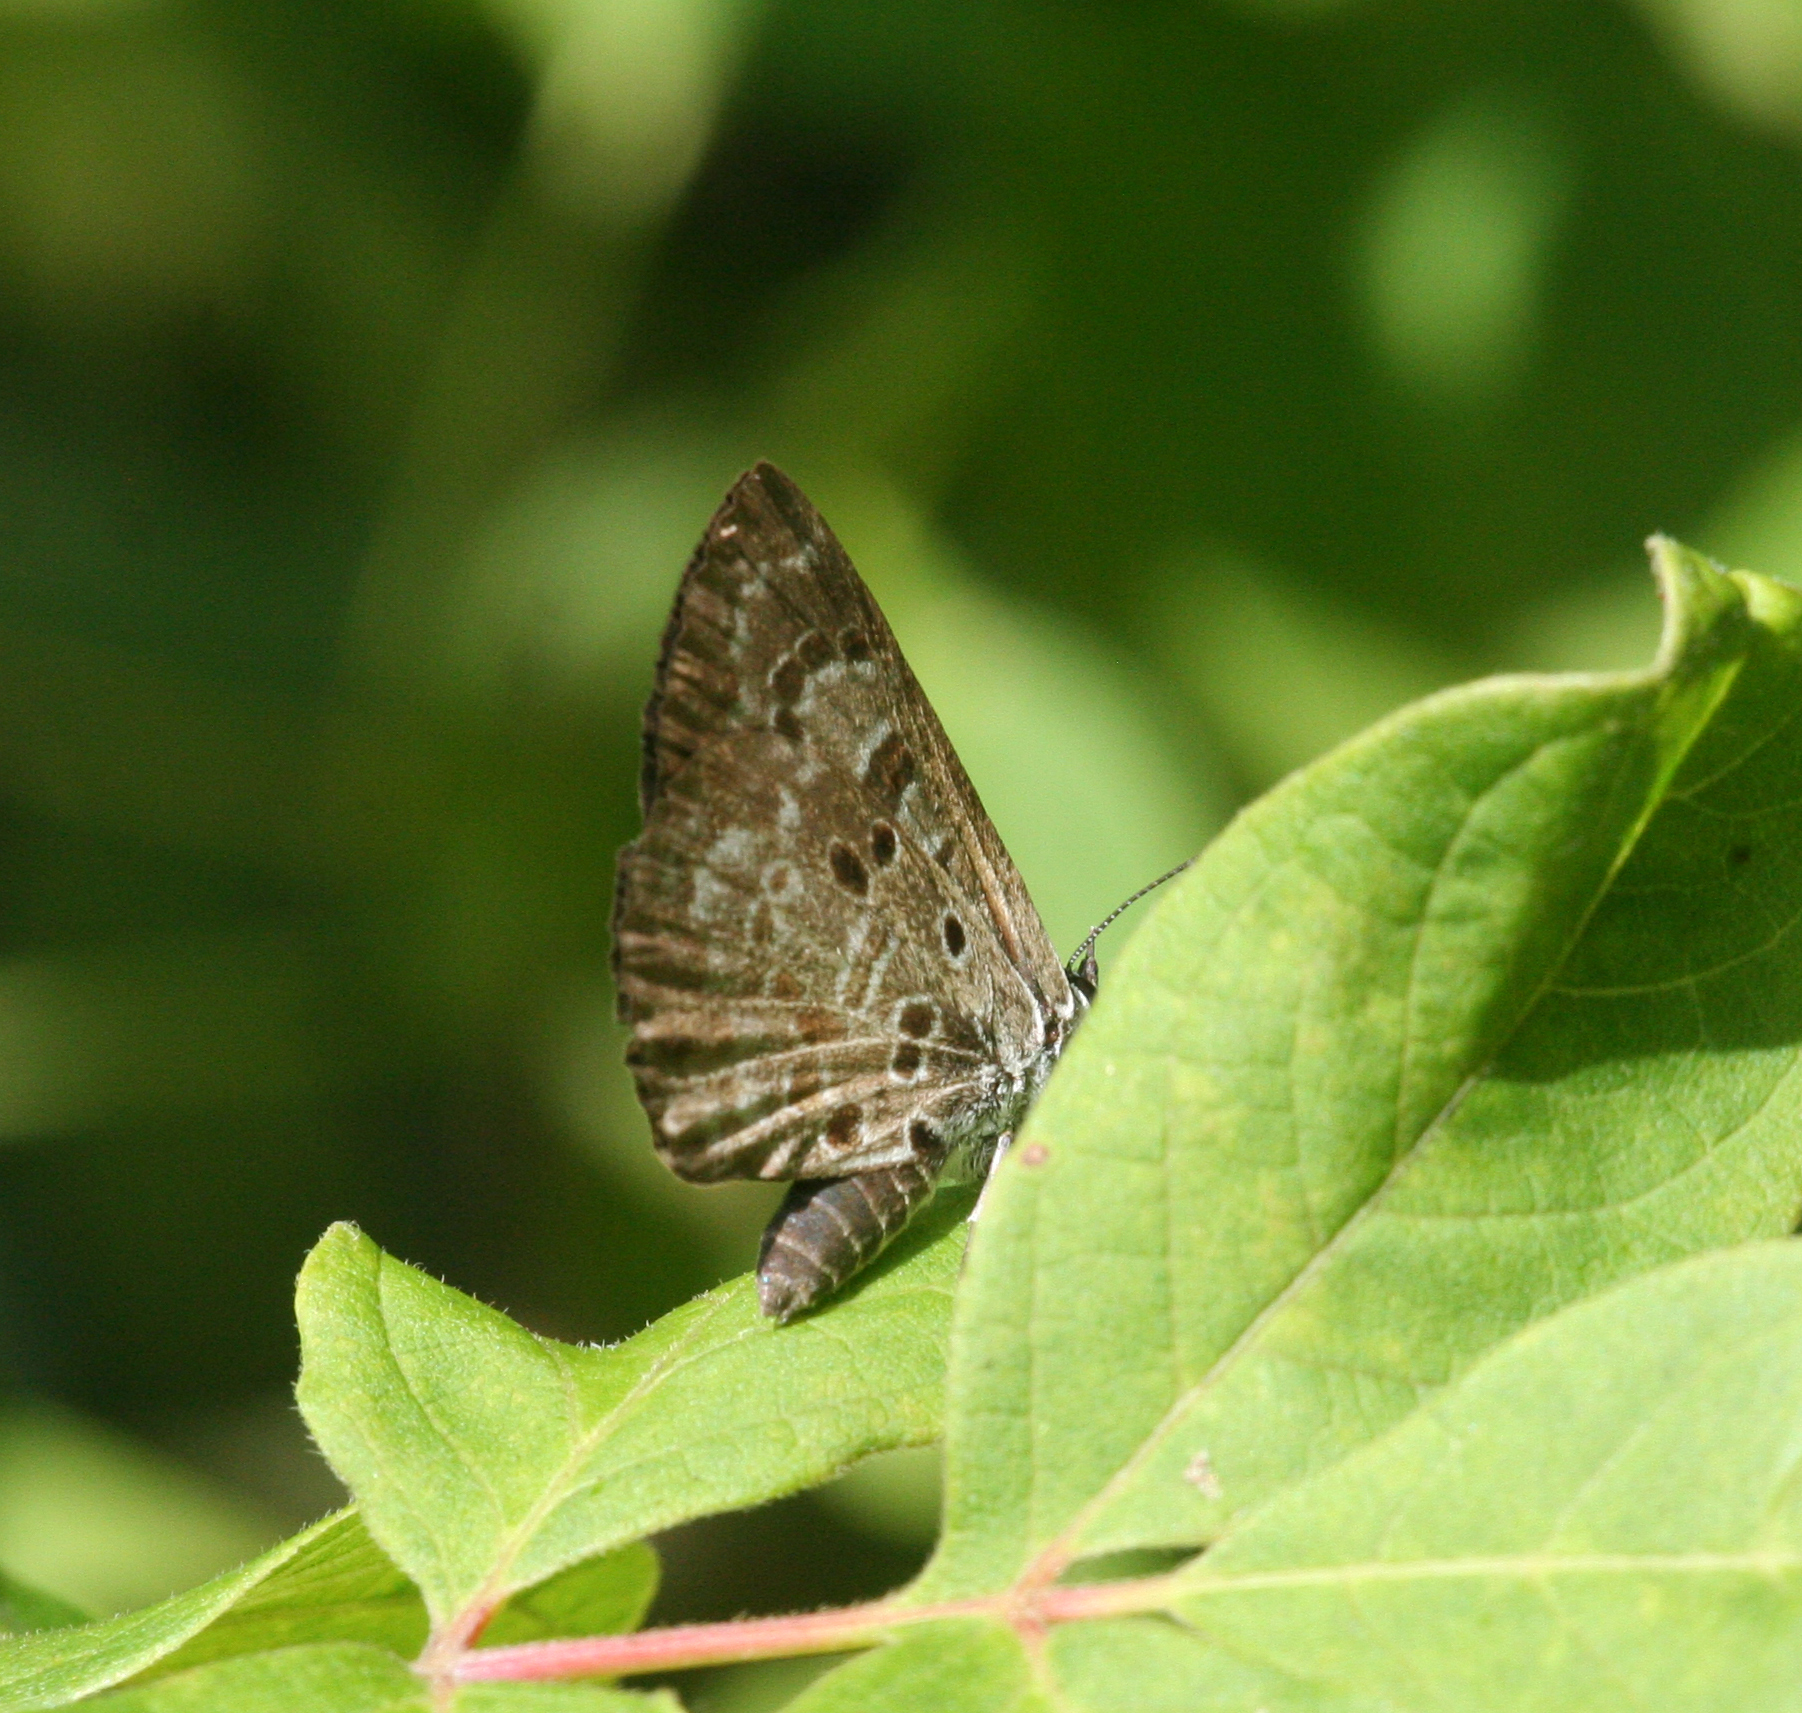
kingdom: Animalia
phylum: Arthropoda
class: Insecta
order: Lepidoptera
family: Lycaenidae
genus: Niphanda
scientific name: Niphanda fusca
